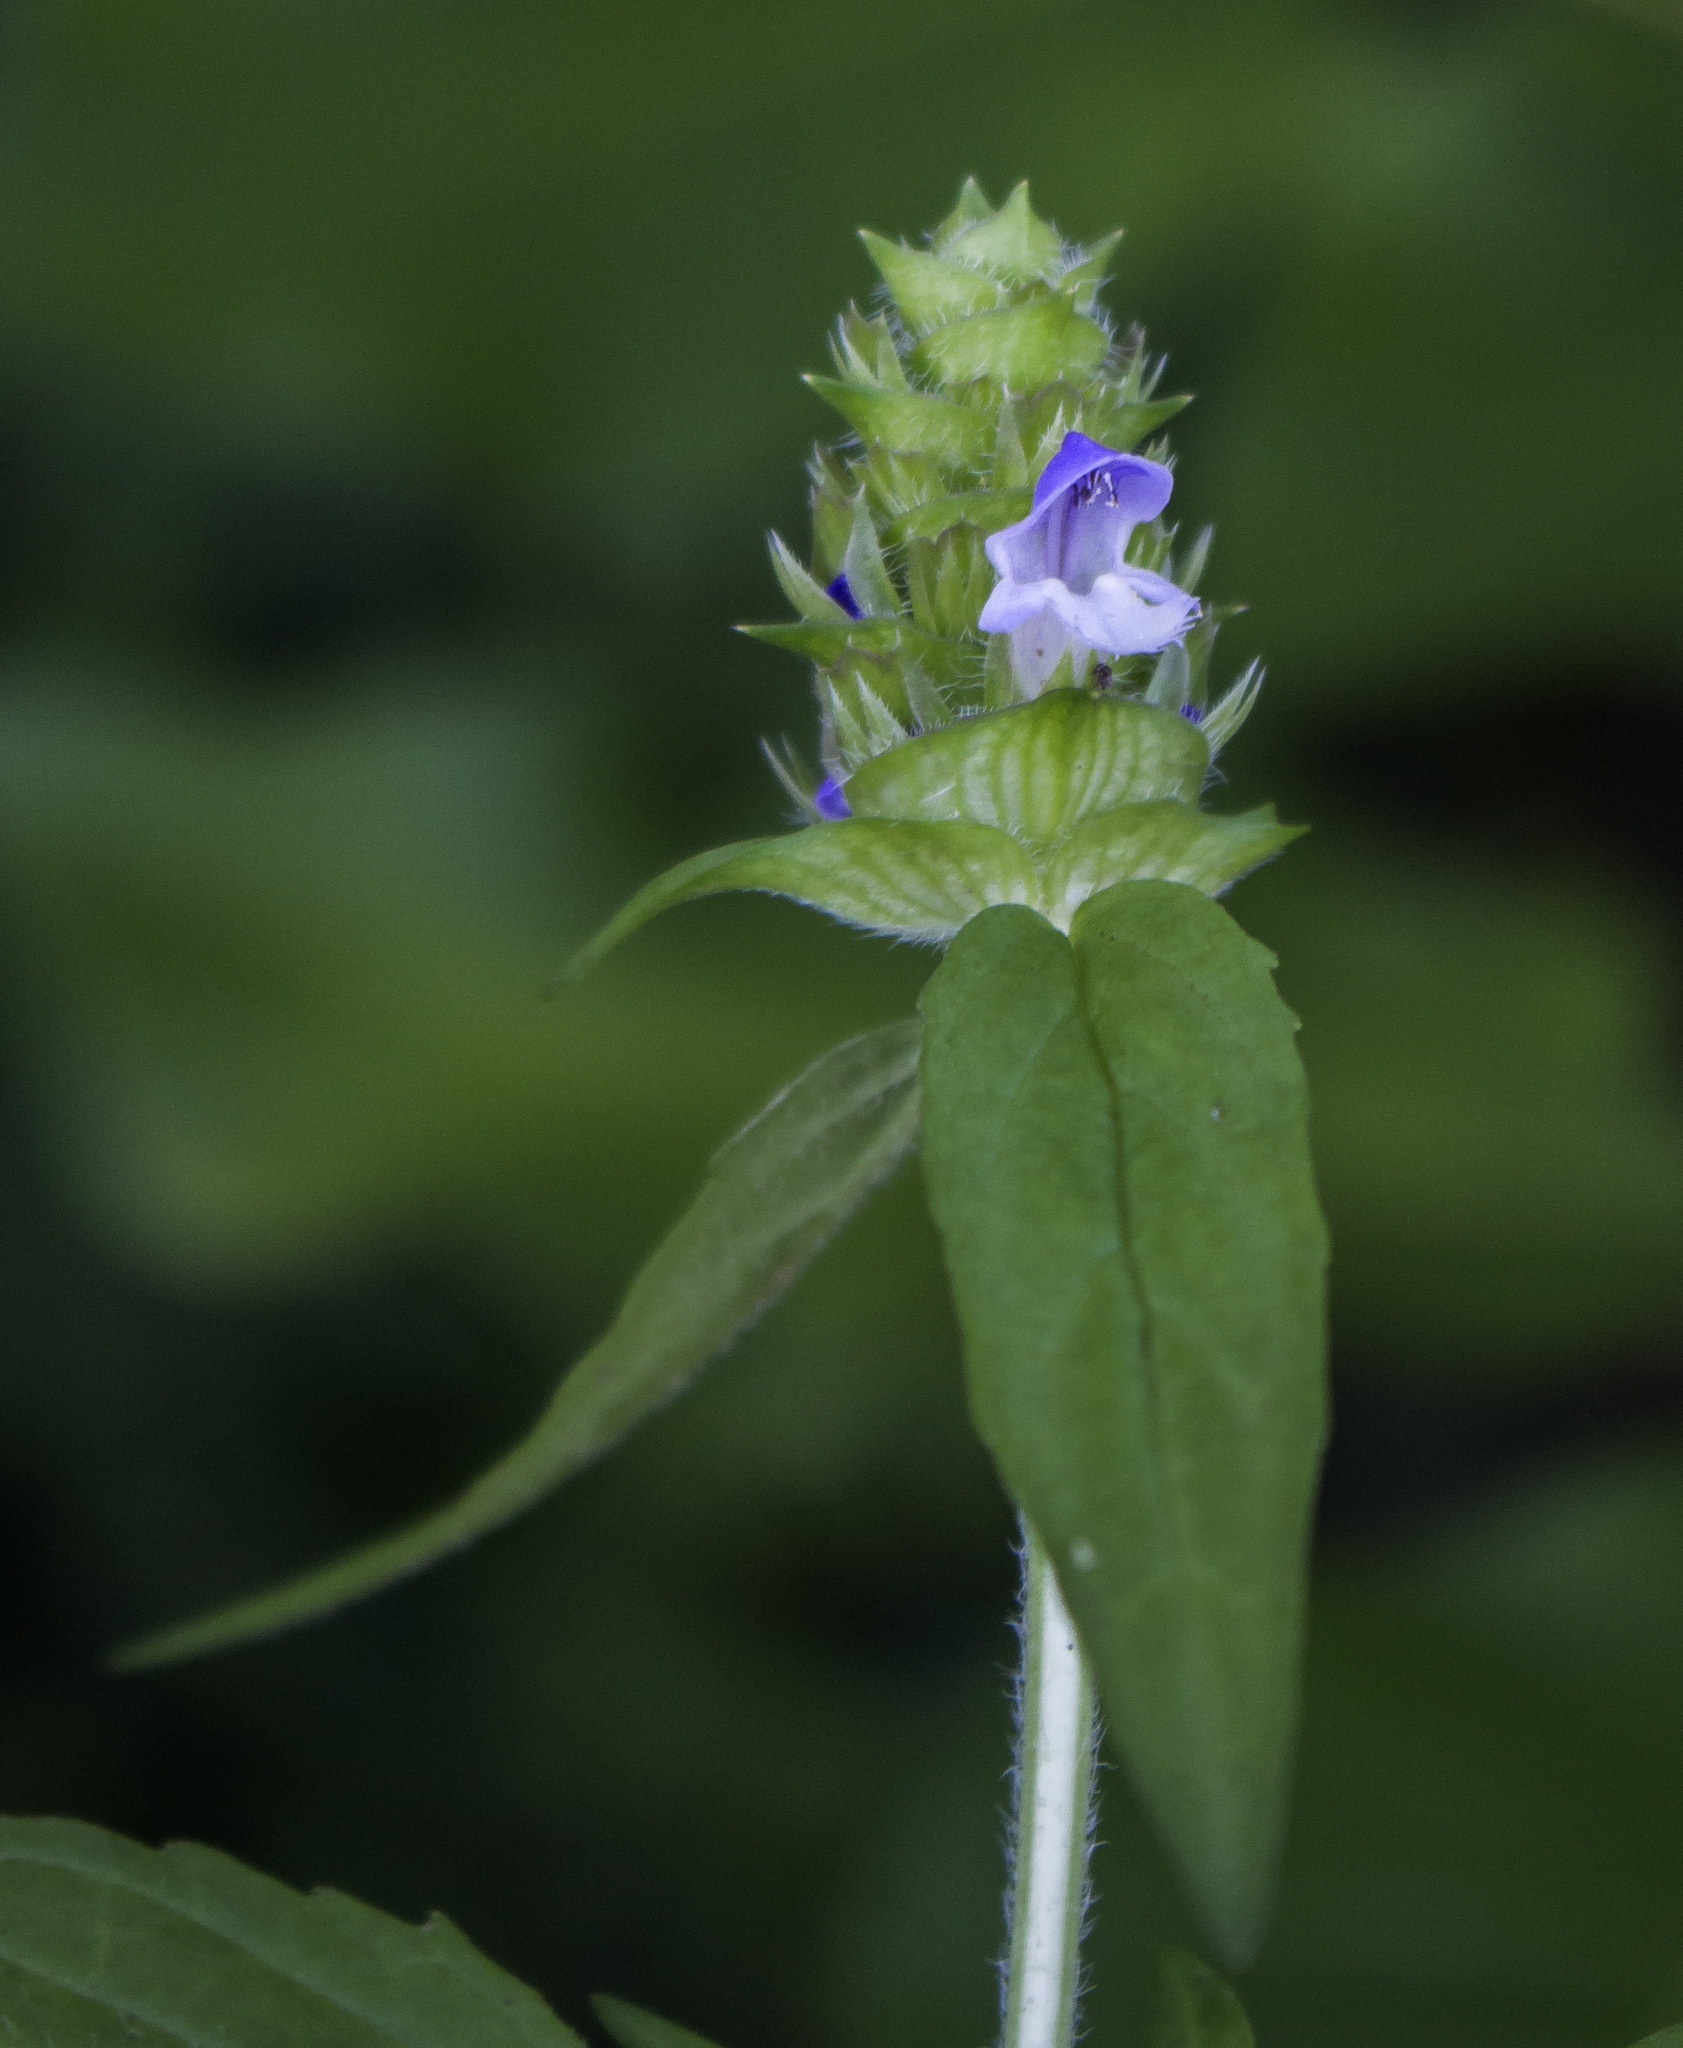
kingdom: Plantae
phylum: Tracheophyta
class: Magnoliopsida
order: Lamiales
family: Lamiaceae
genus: Prunella
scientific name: Prunella vulgaris
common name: Heal-all
